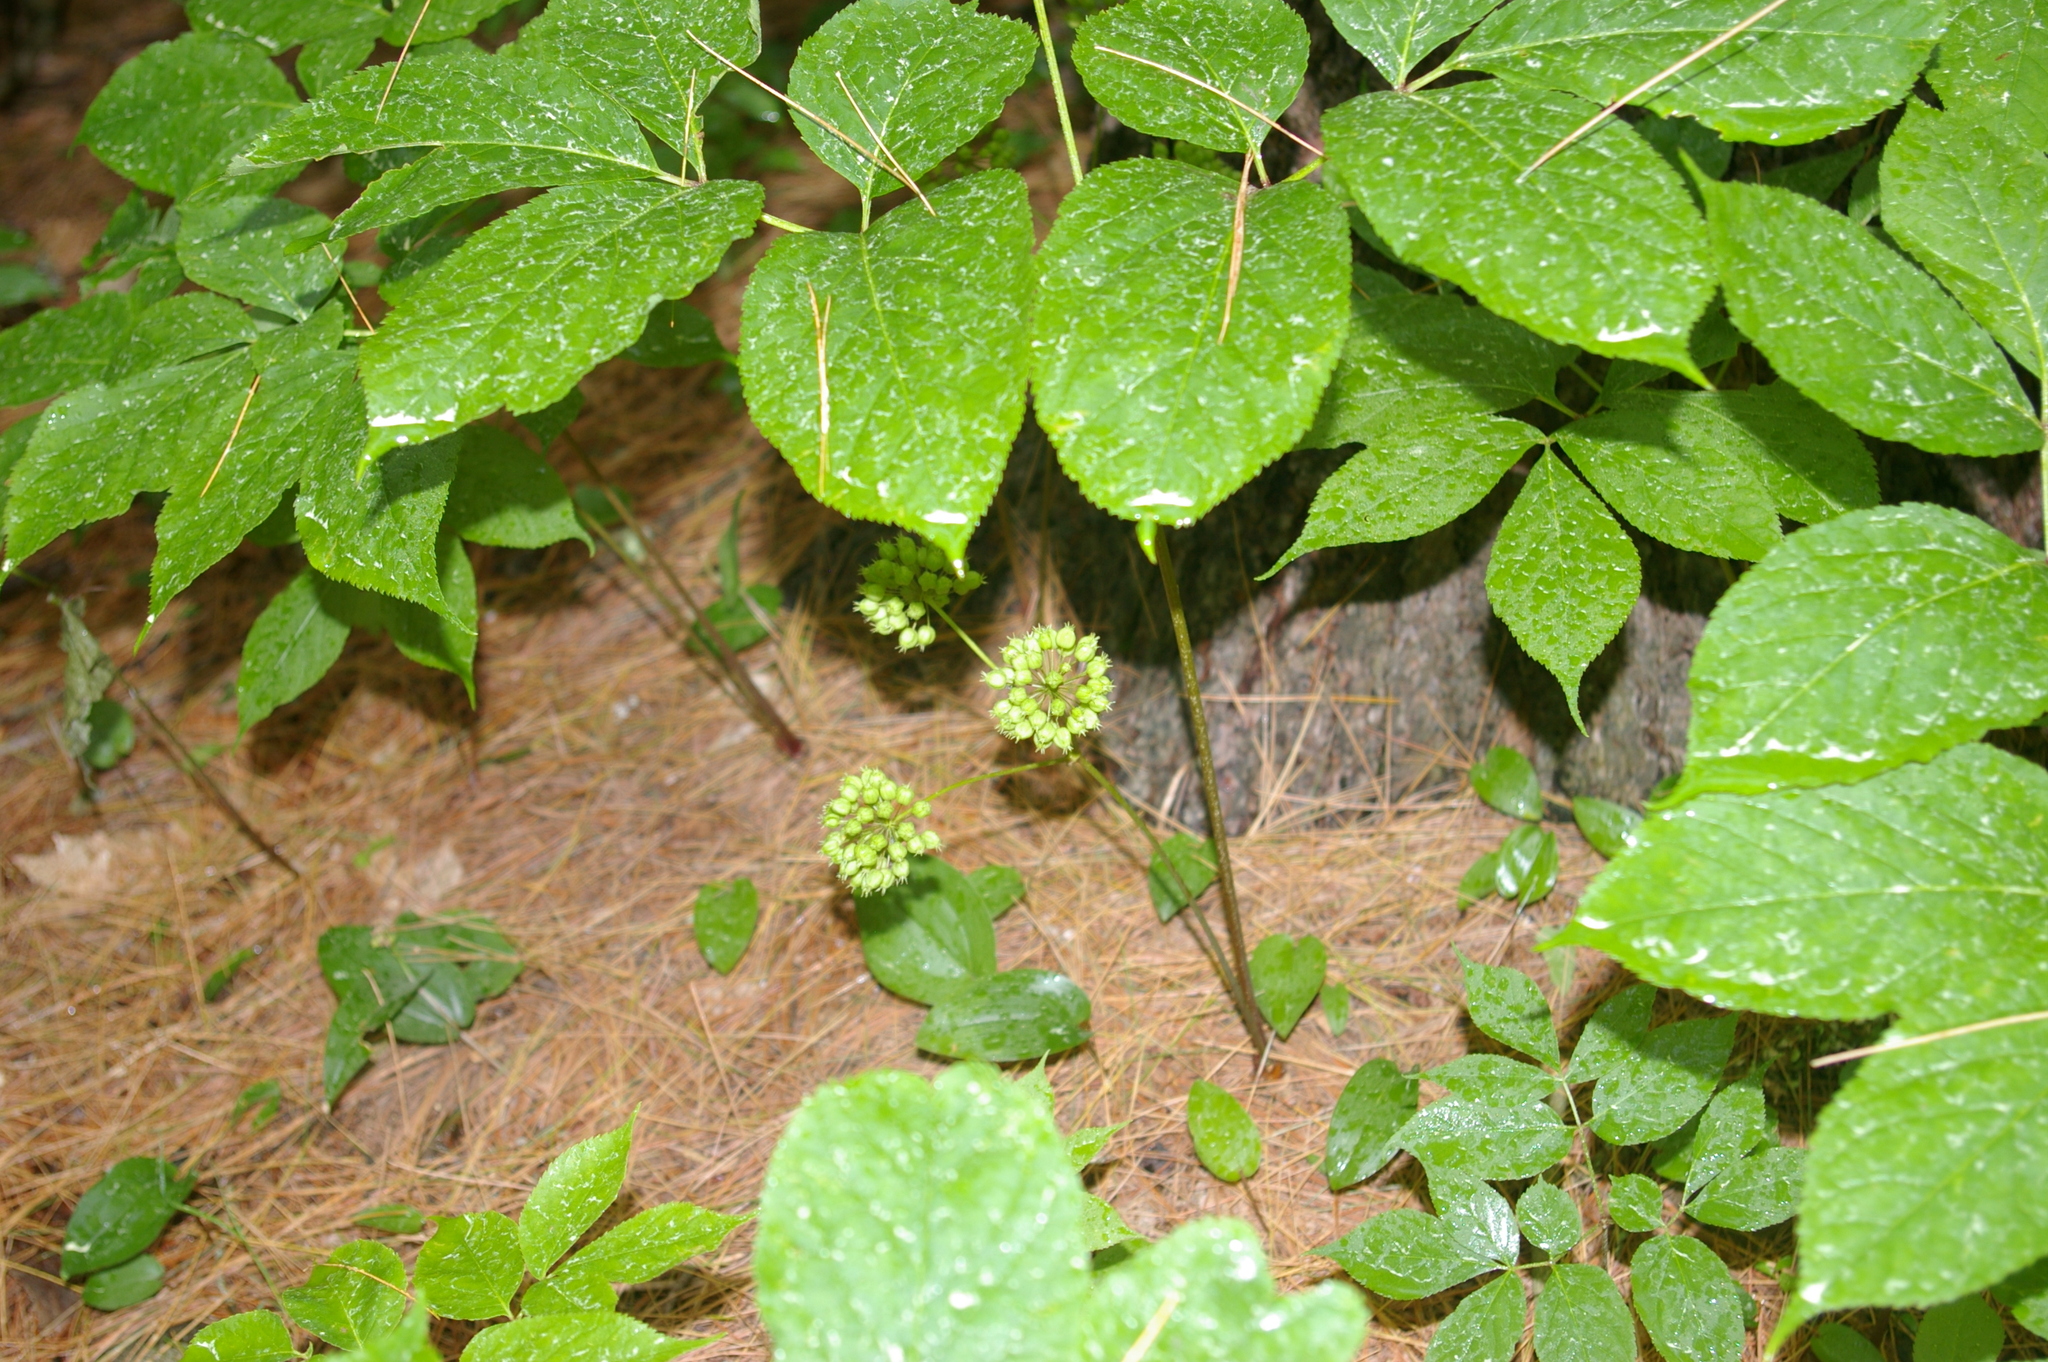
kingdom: Plantae
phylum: Tracheophyta
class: Magnoliopsida
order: Apiales
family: Araliaceae
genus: Aralia
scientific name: Aralia nudicaulis
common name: Wild sarsaparilla
